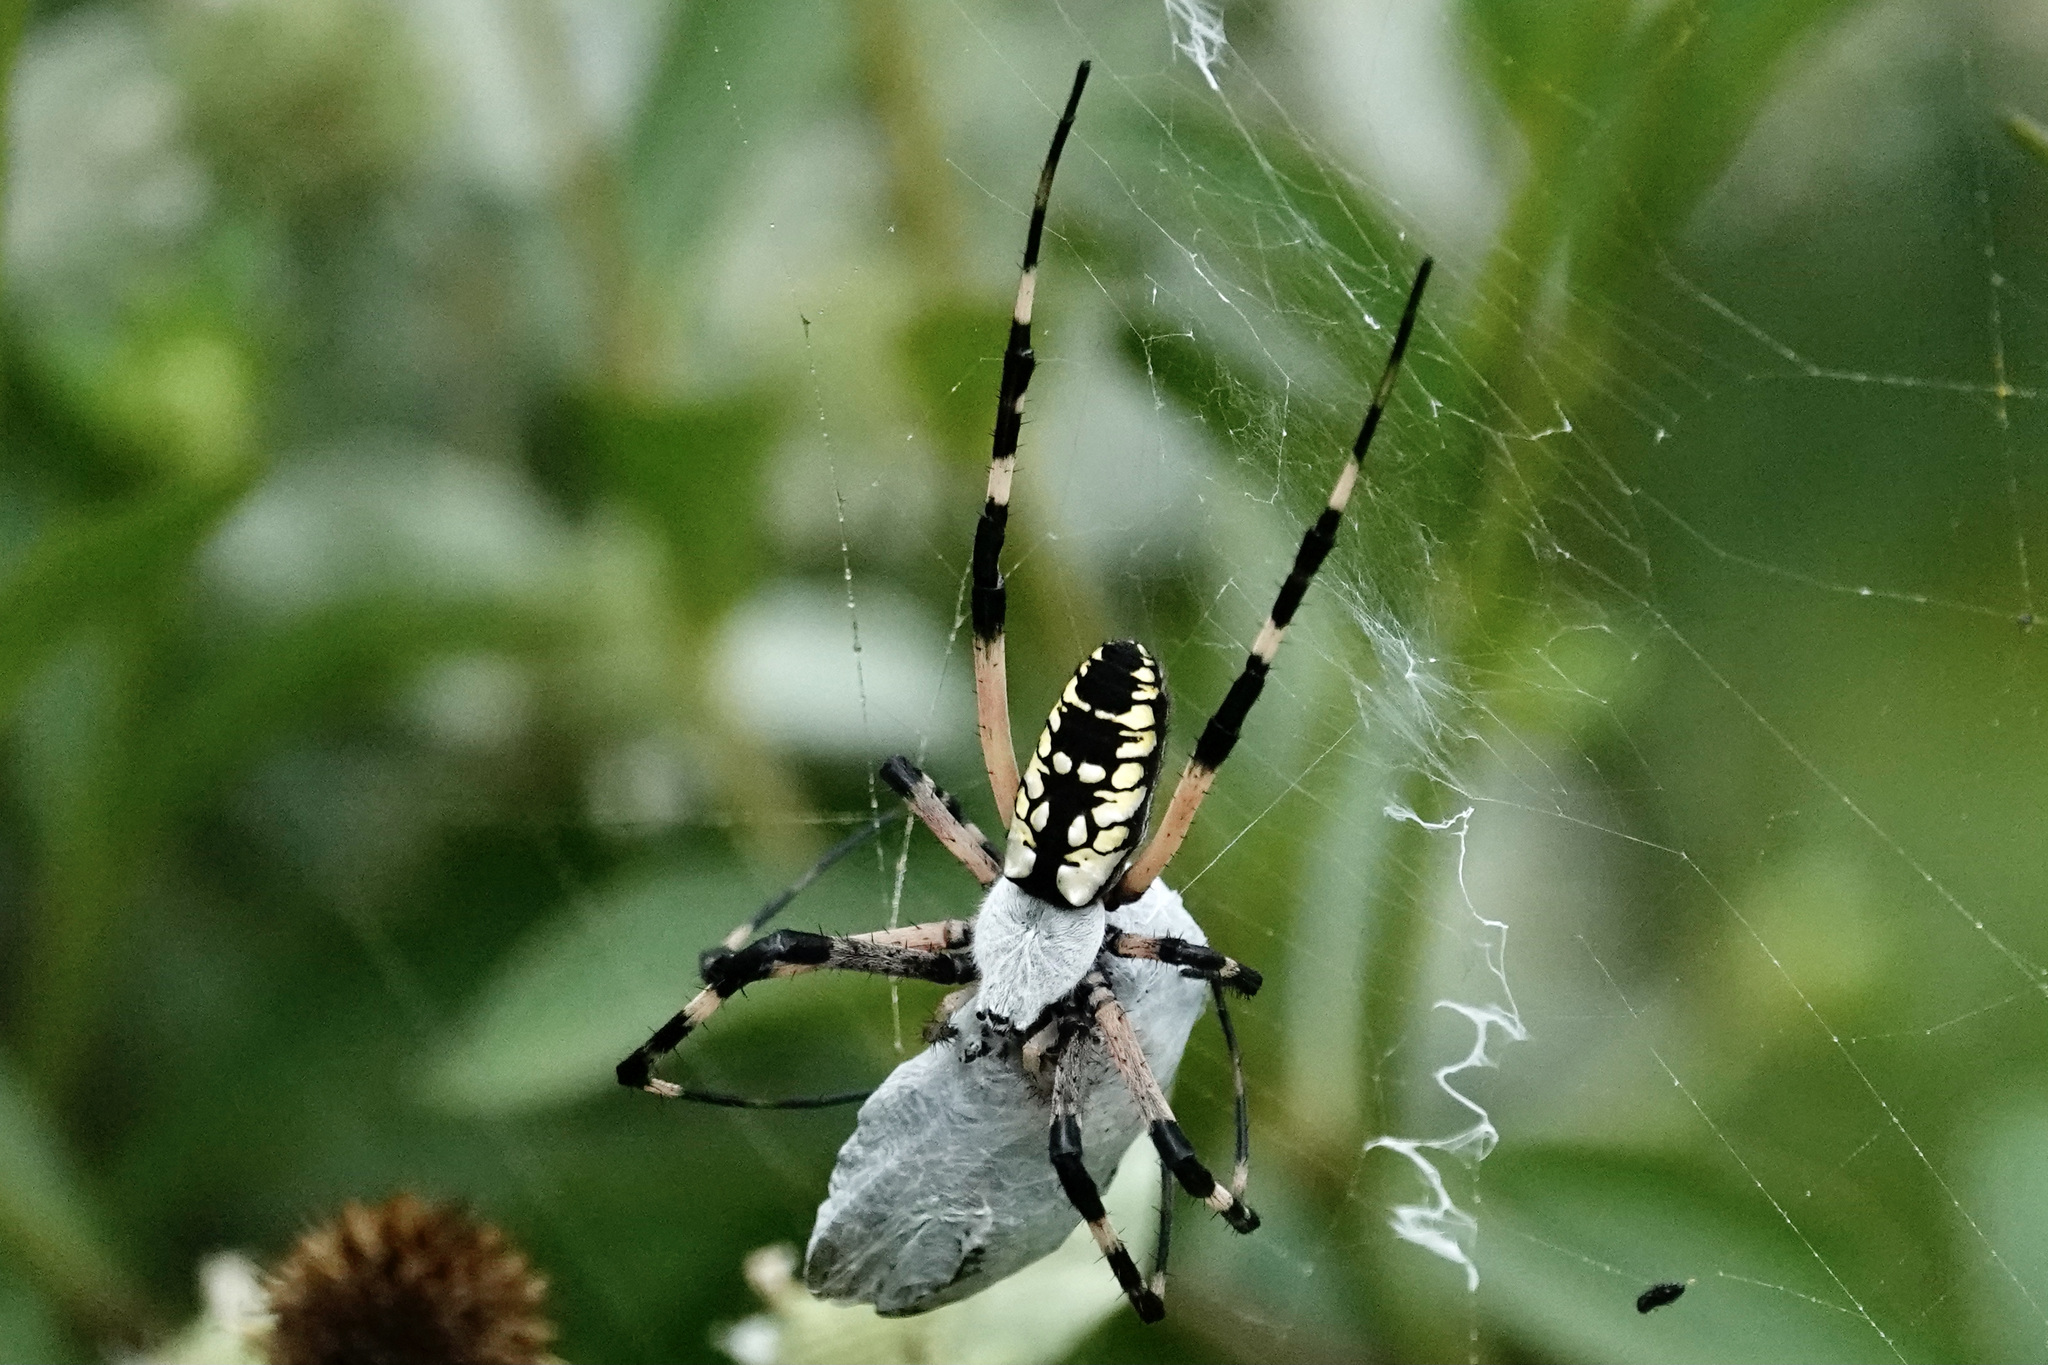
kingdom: Animalia
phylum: Arthropoda
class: Arachnida
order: Araneae
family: Araneidae
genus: Argiope
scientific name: Argiope aurantia
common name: Orb weavers
